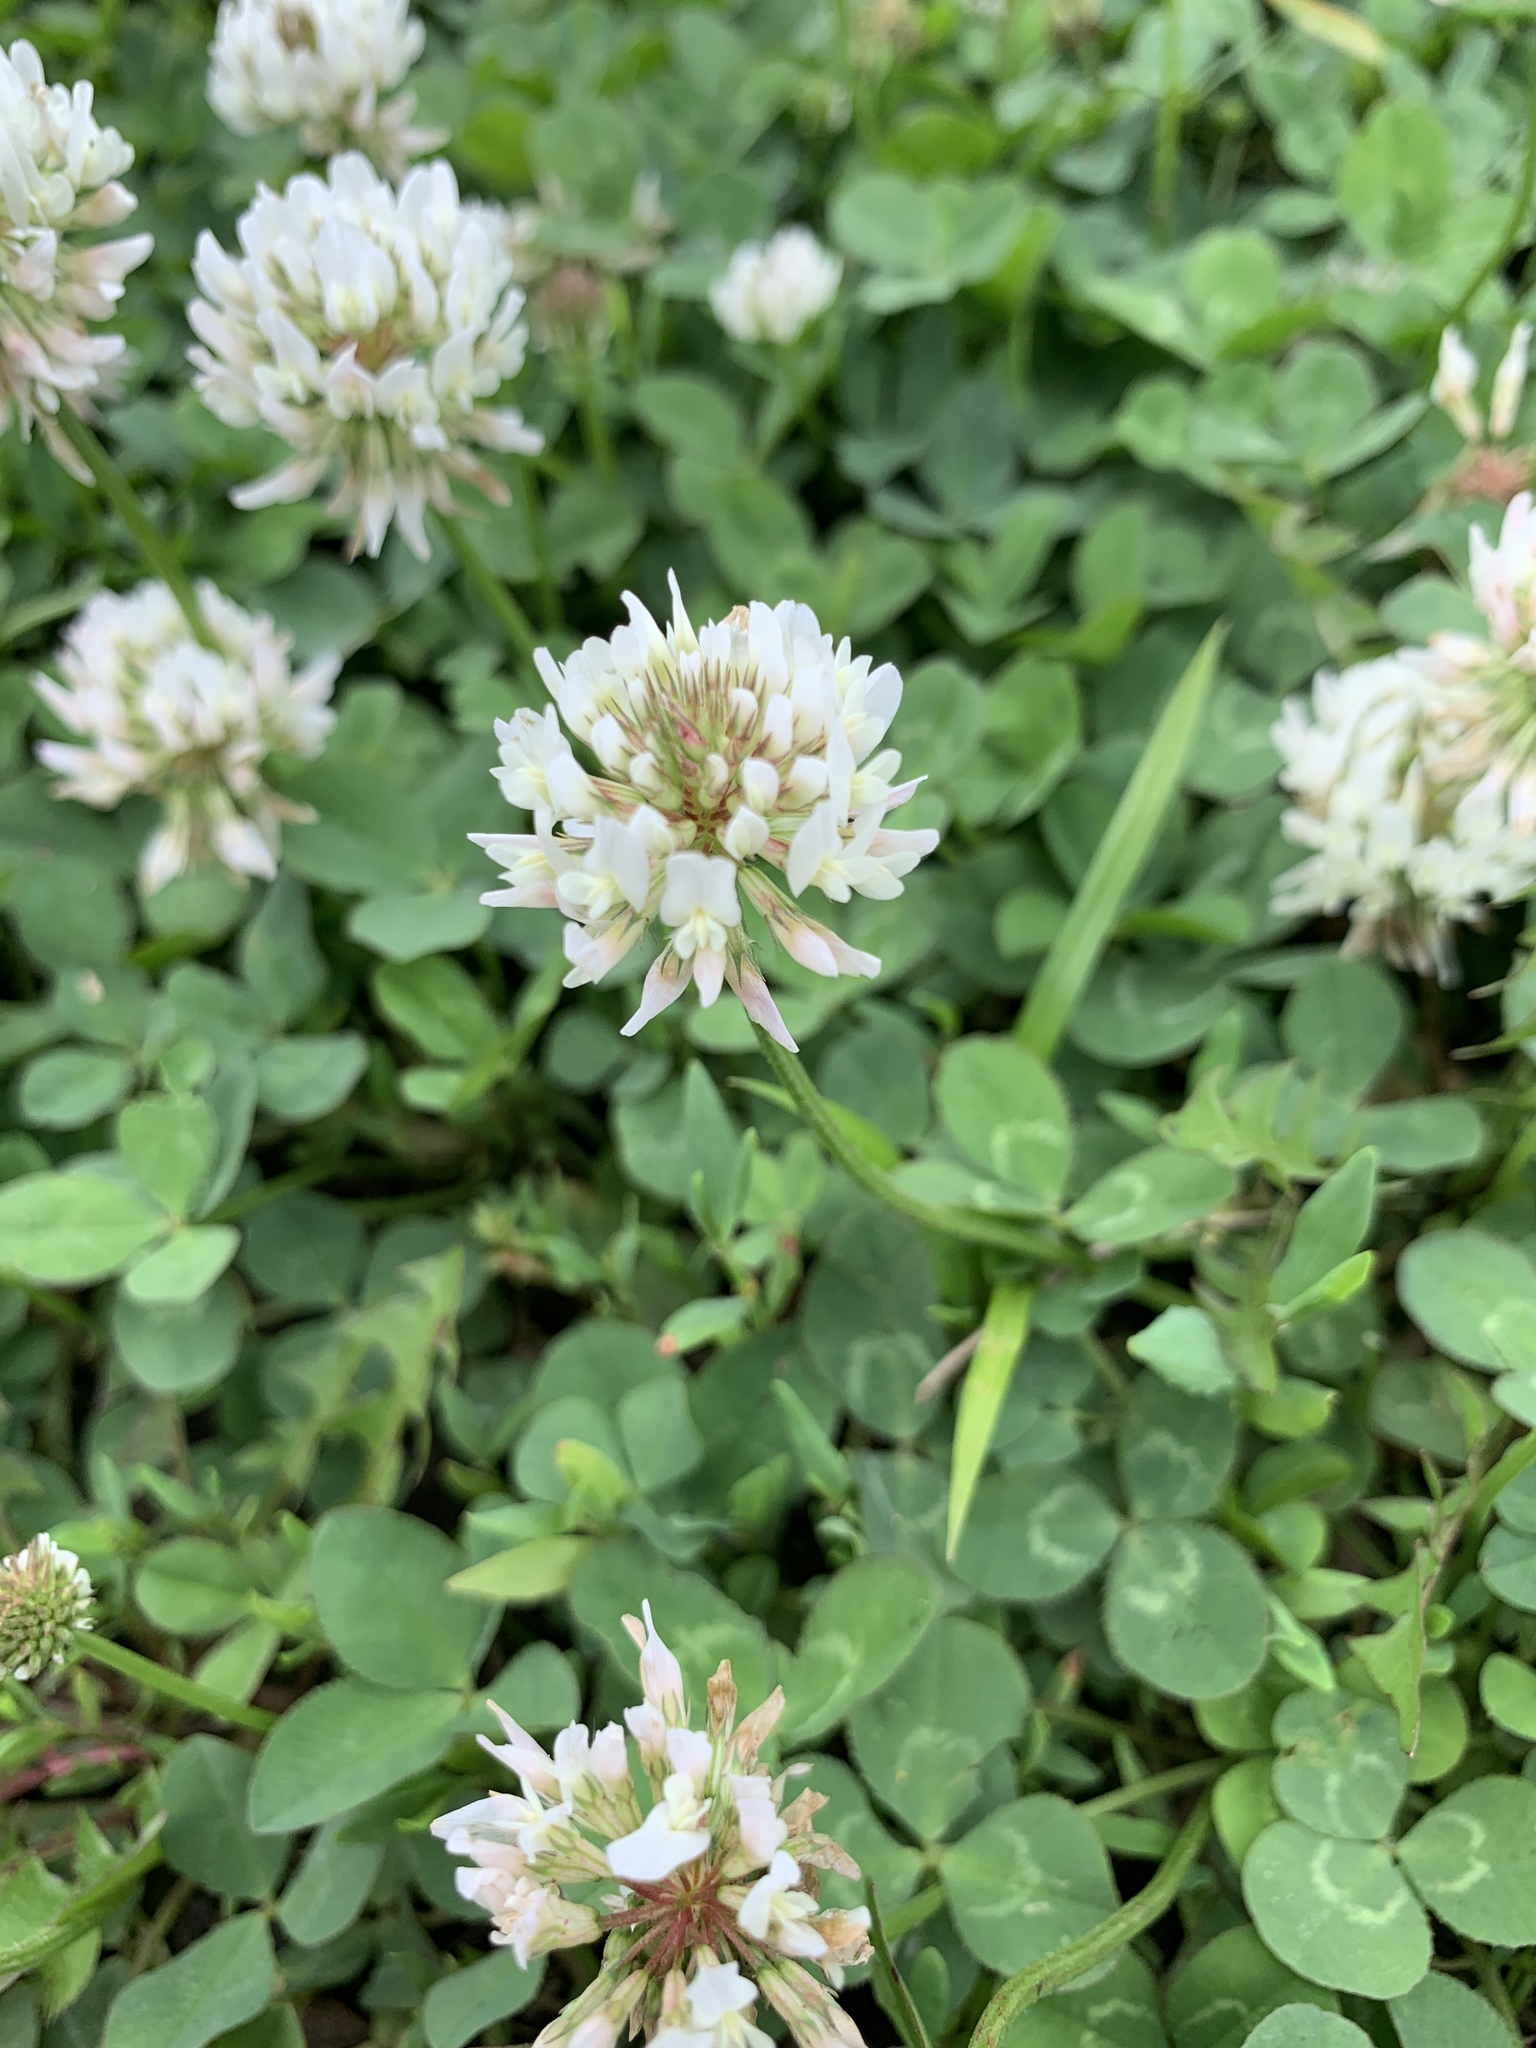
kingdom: Plantae
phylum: Tracheophyta
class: Magnoliopsida
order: Fabales
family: Fabaceae
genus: Trifolium
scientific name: Trifolium repens
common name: White clover
